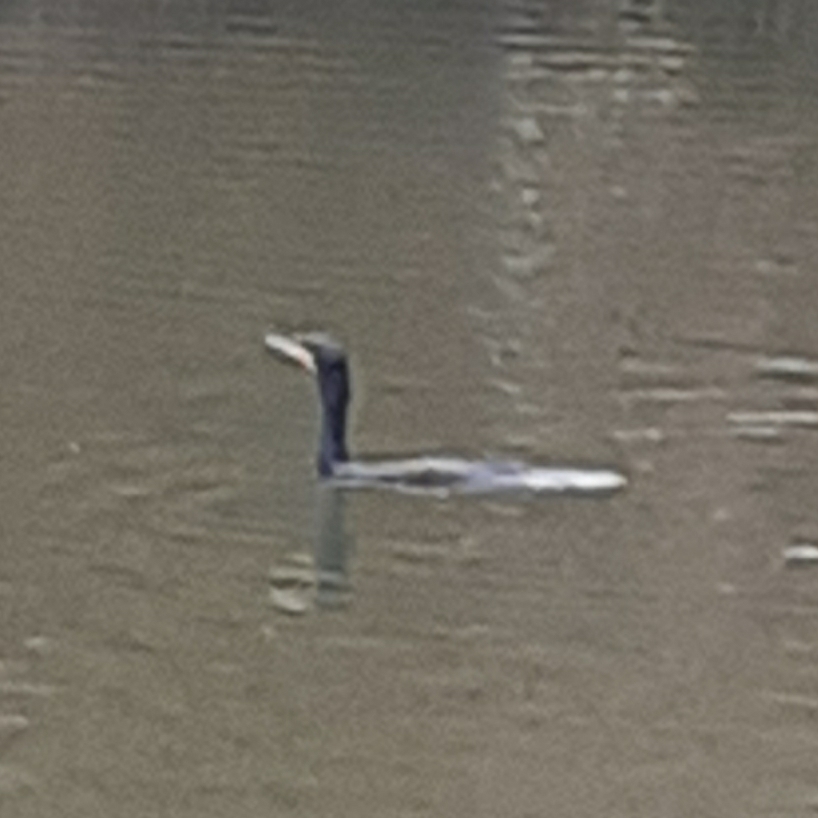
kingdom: Animalia
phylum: Chordata
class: Aves
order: Suliformes
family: Phalacrocoracidae
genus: Phalacrocorax
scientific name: Phalacrocorax carbo
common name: Great cormorant
